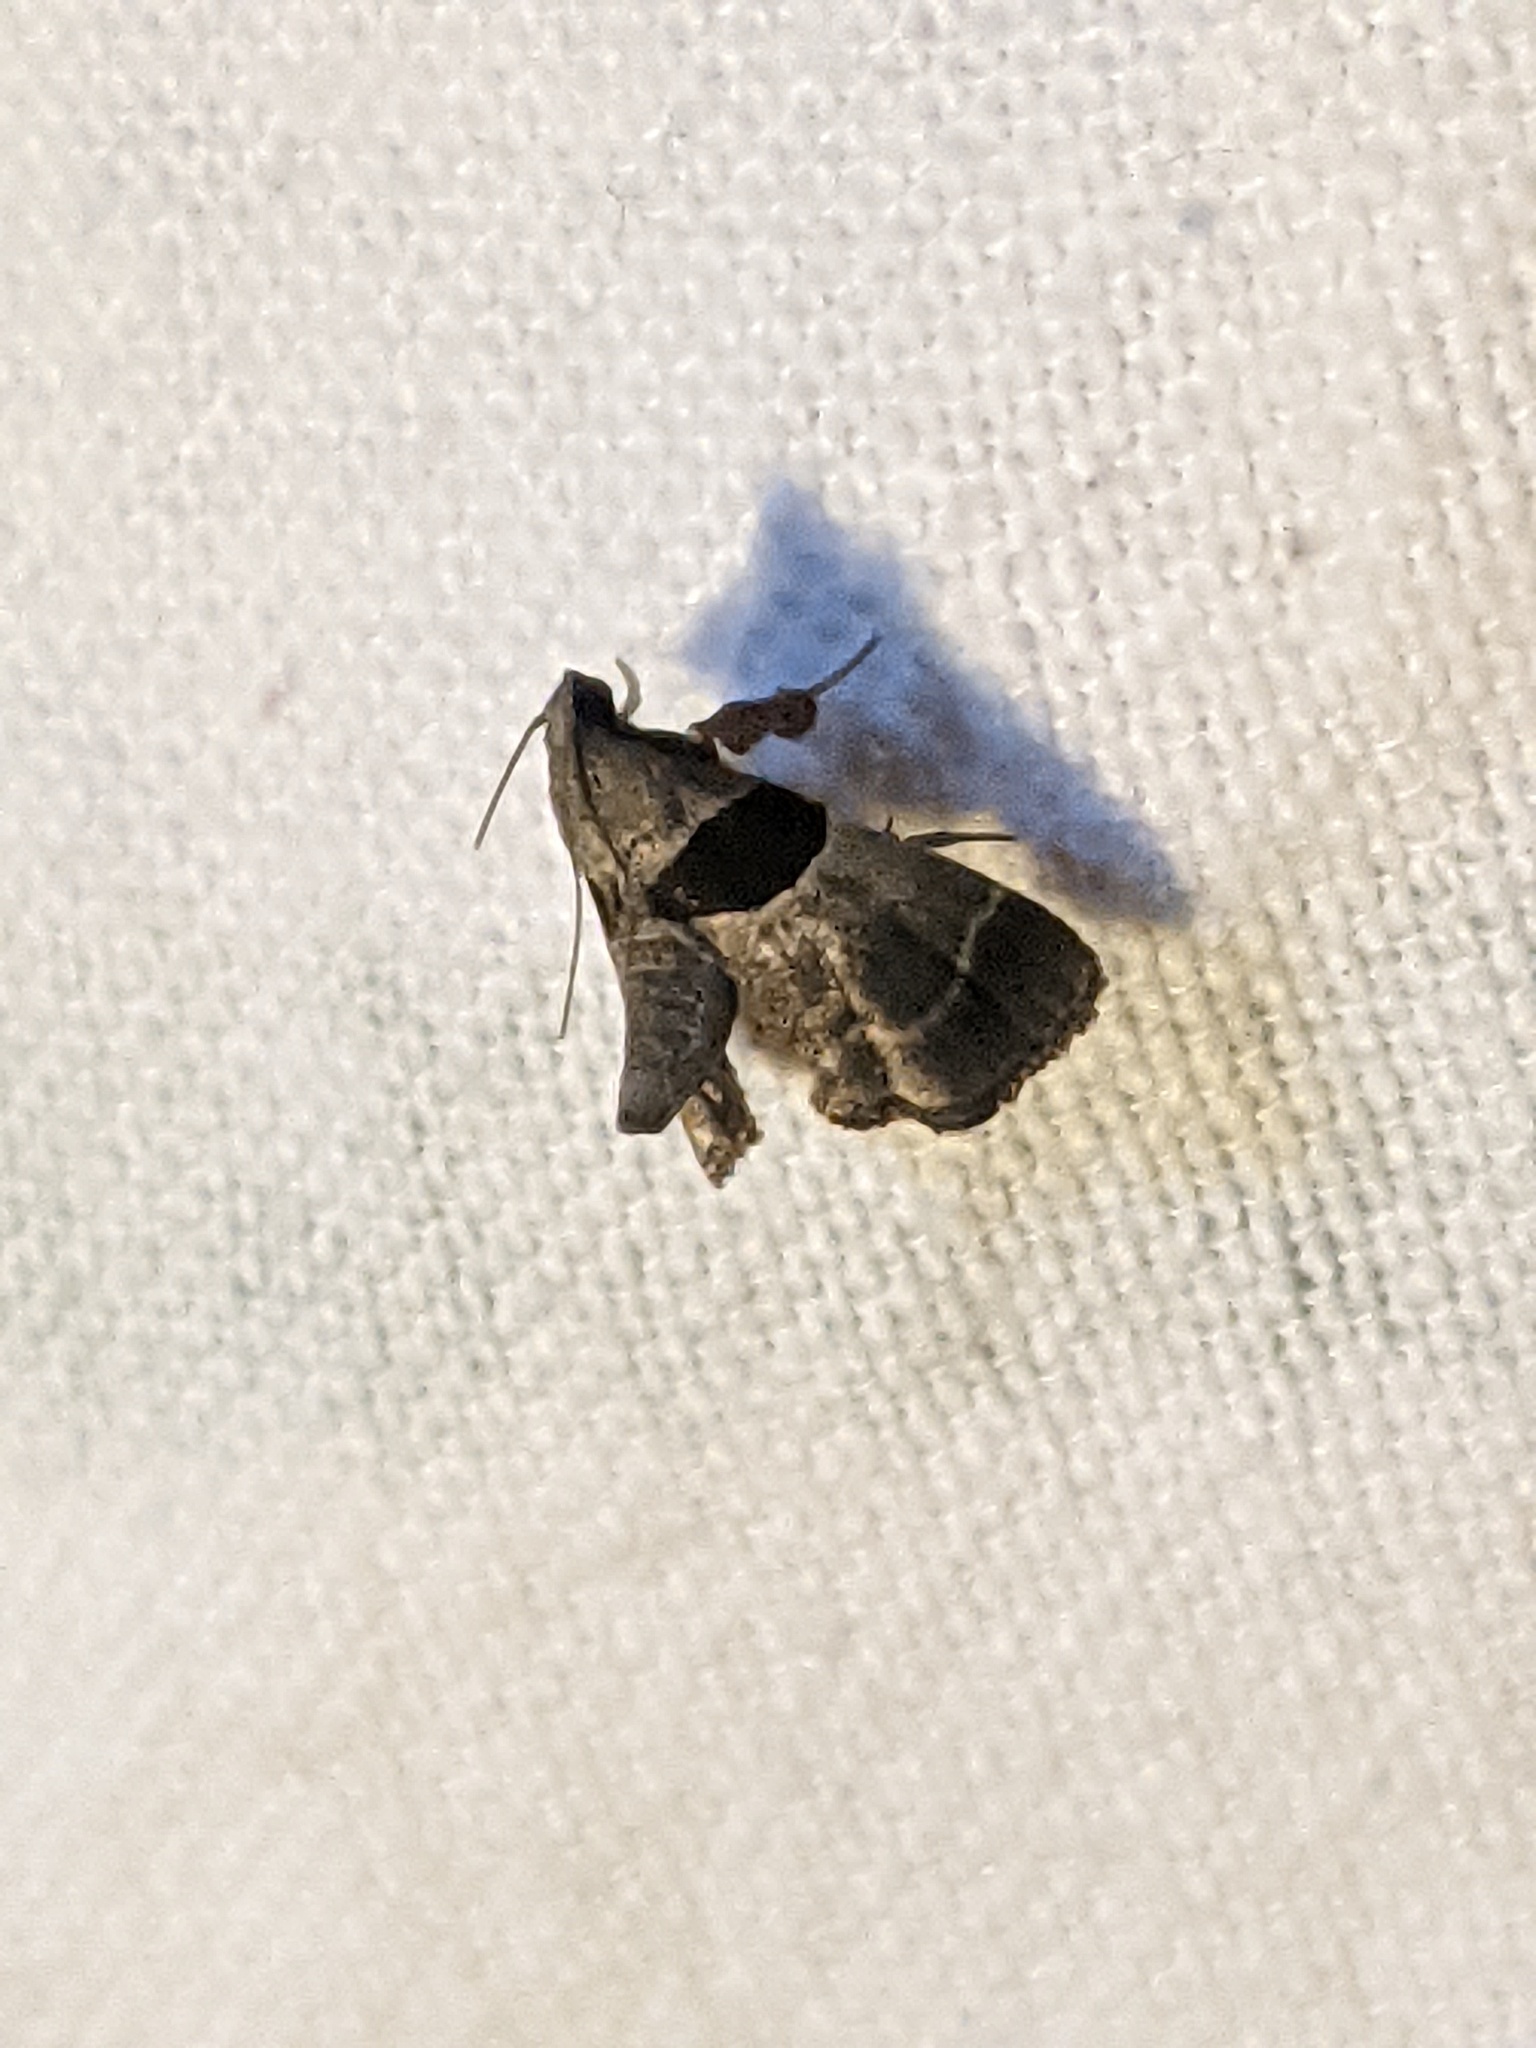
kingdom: Animalia
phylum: Arthropoda
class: Insecta
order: Lepidoptera
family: Pyralidae
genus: Tosale
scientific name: Tosale oviplagalis
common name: Dimorphic tosale moth
